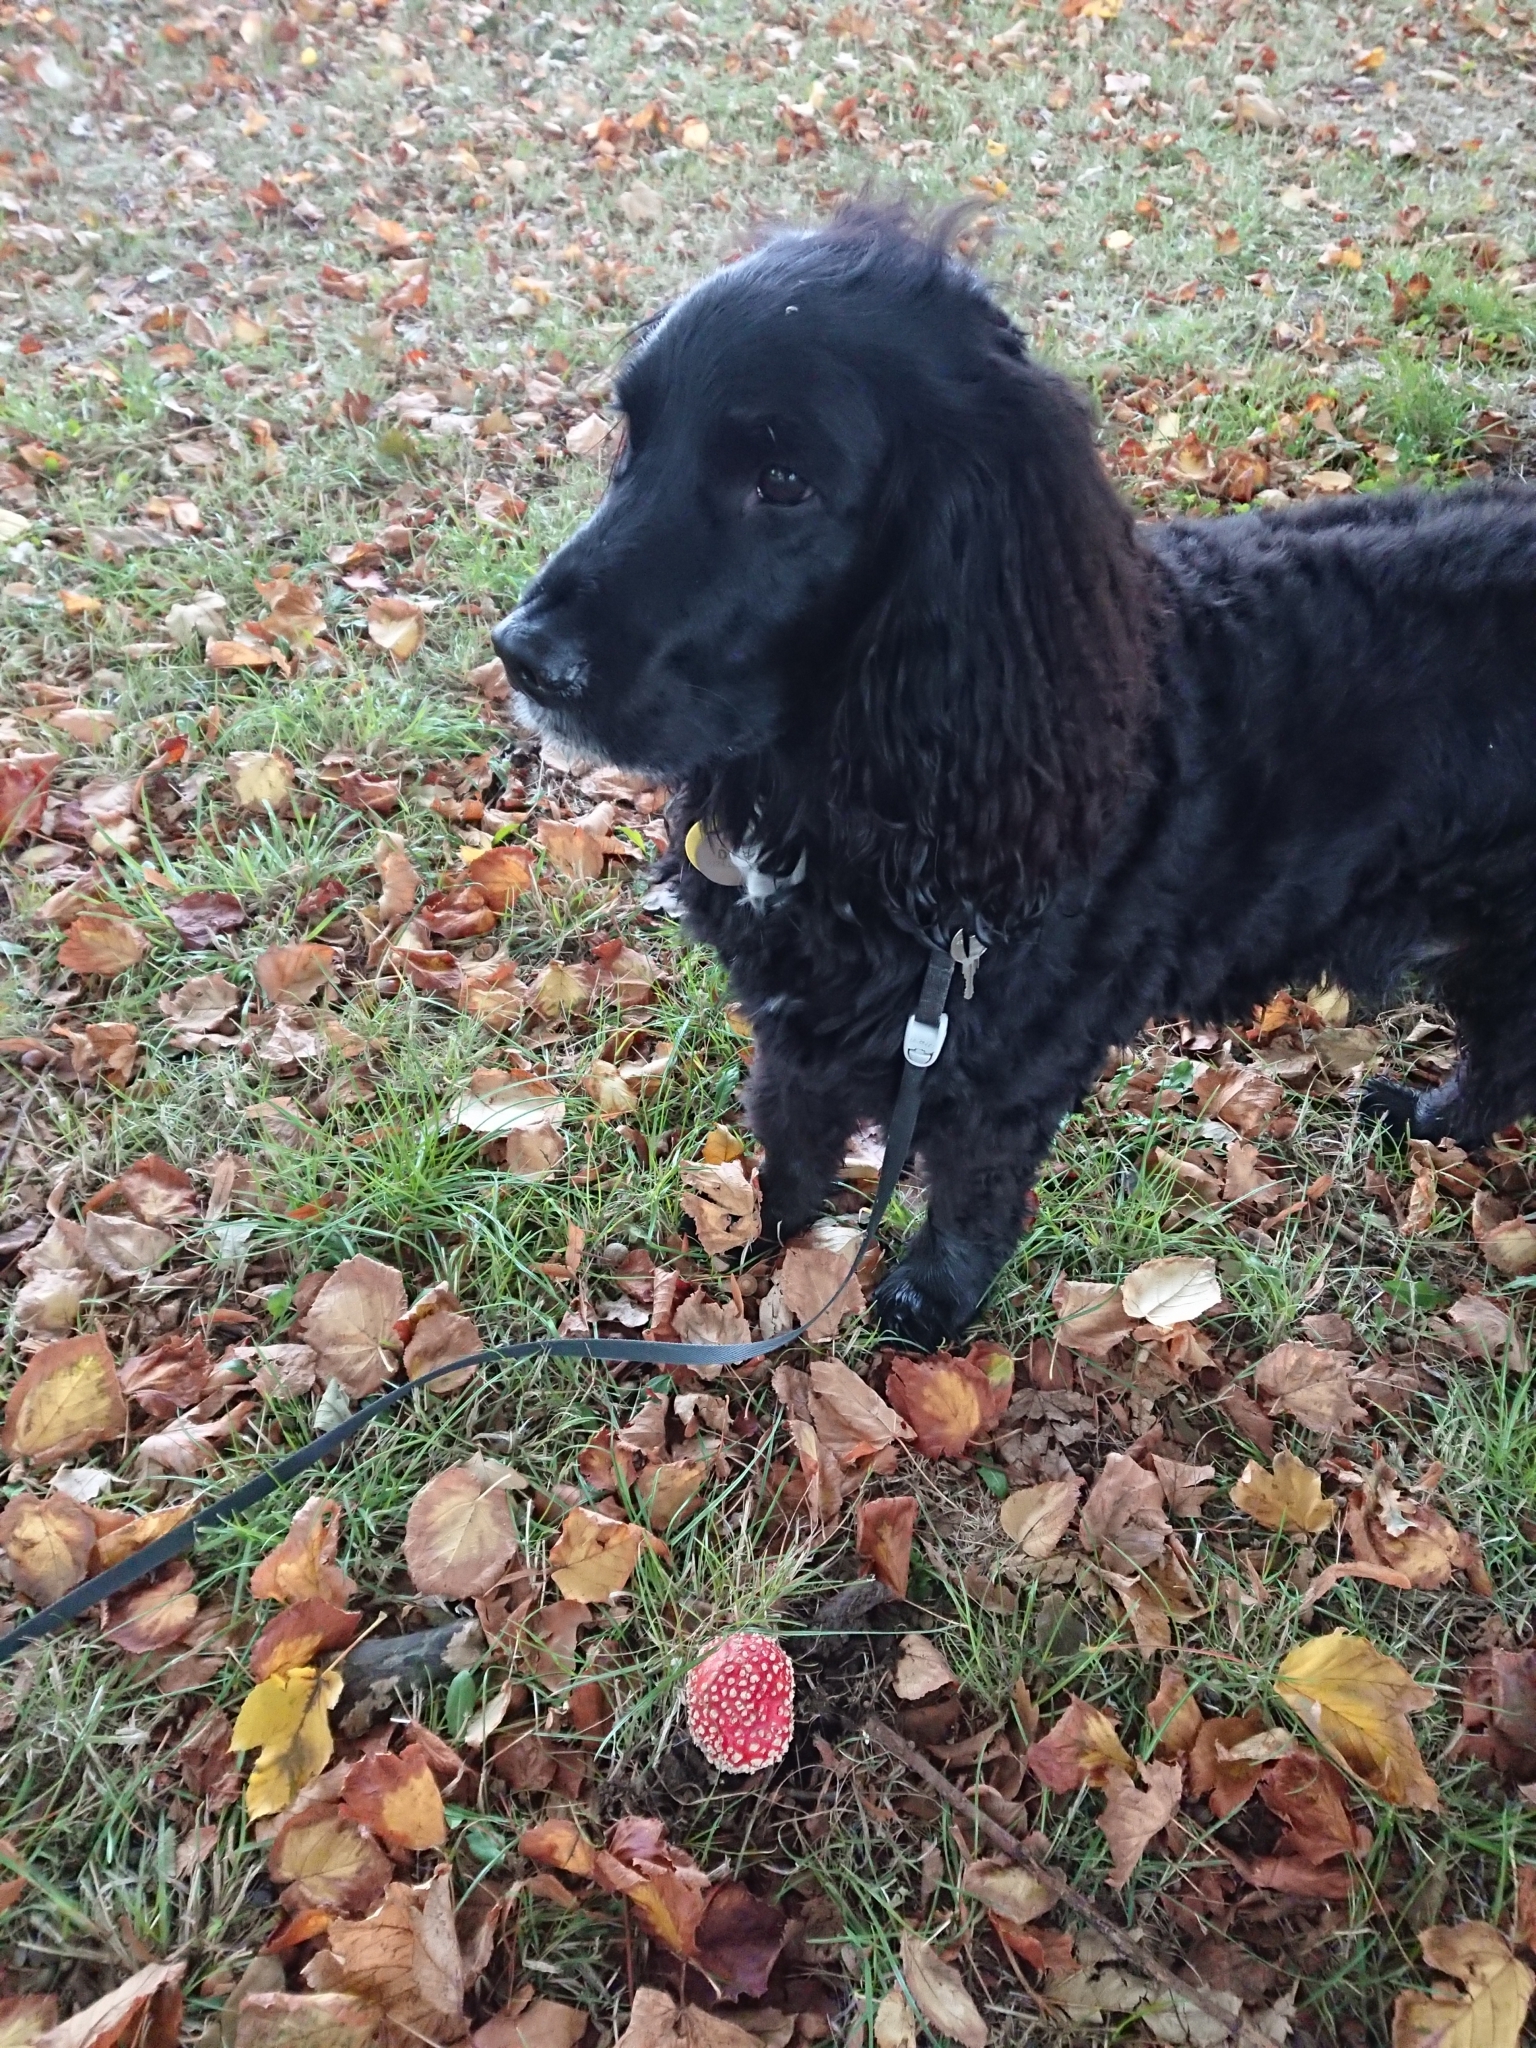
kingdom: Fungi
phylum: Basidiomycota
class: Agaricomycetes
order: Agaricales
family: Amanitaceae
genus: Amanita
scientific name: Amanita muscaria
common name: Fly agaric
